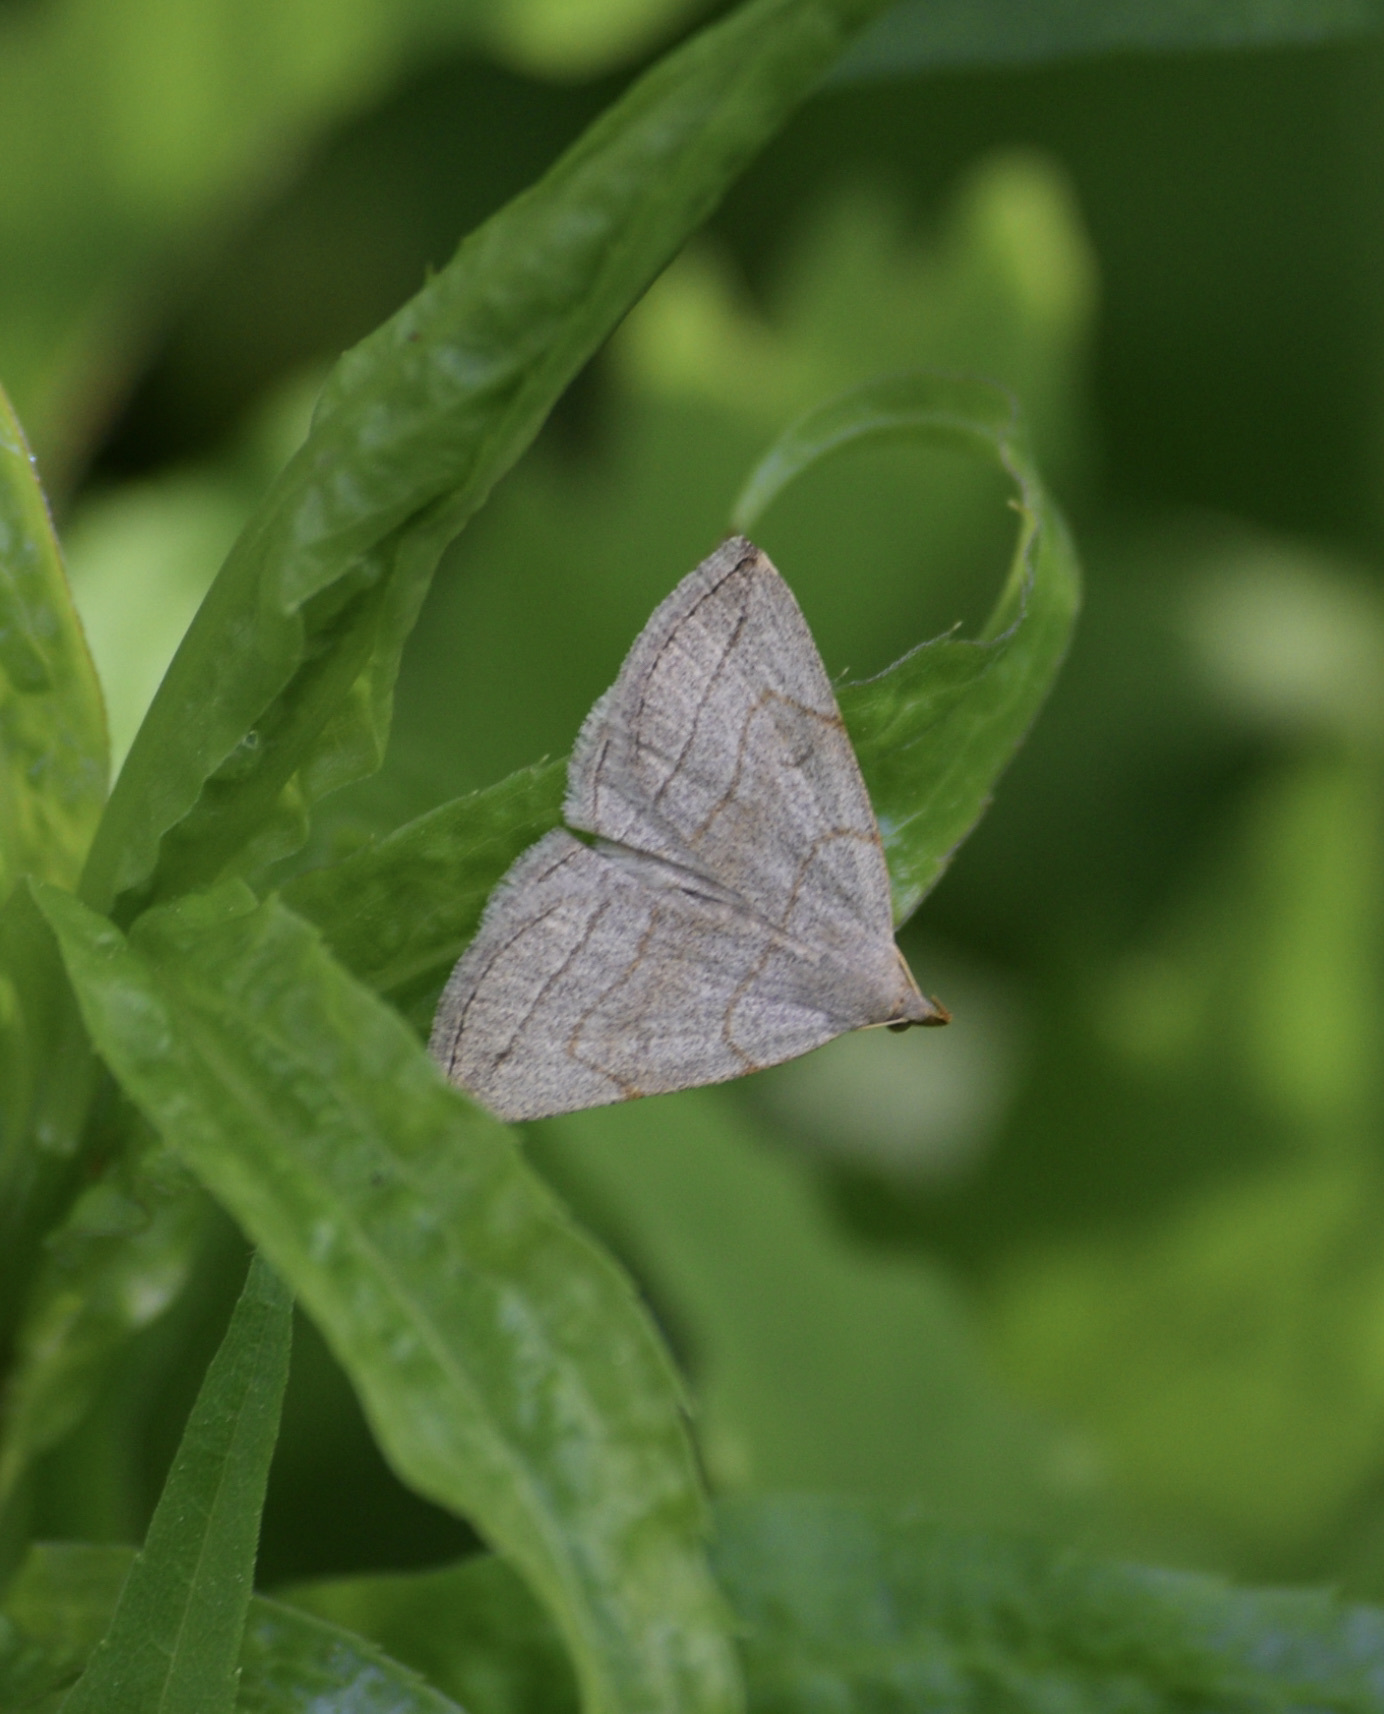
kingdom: Animalia
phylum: Arthropoda
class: Insecta
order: Lepidoptera
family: Erebidae
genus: Zanclognatha
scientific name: Zanclognatha pedipilalis
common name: Grayish fan-foot
